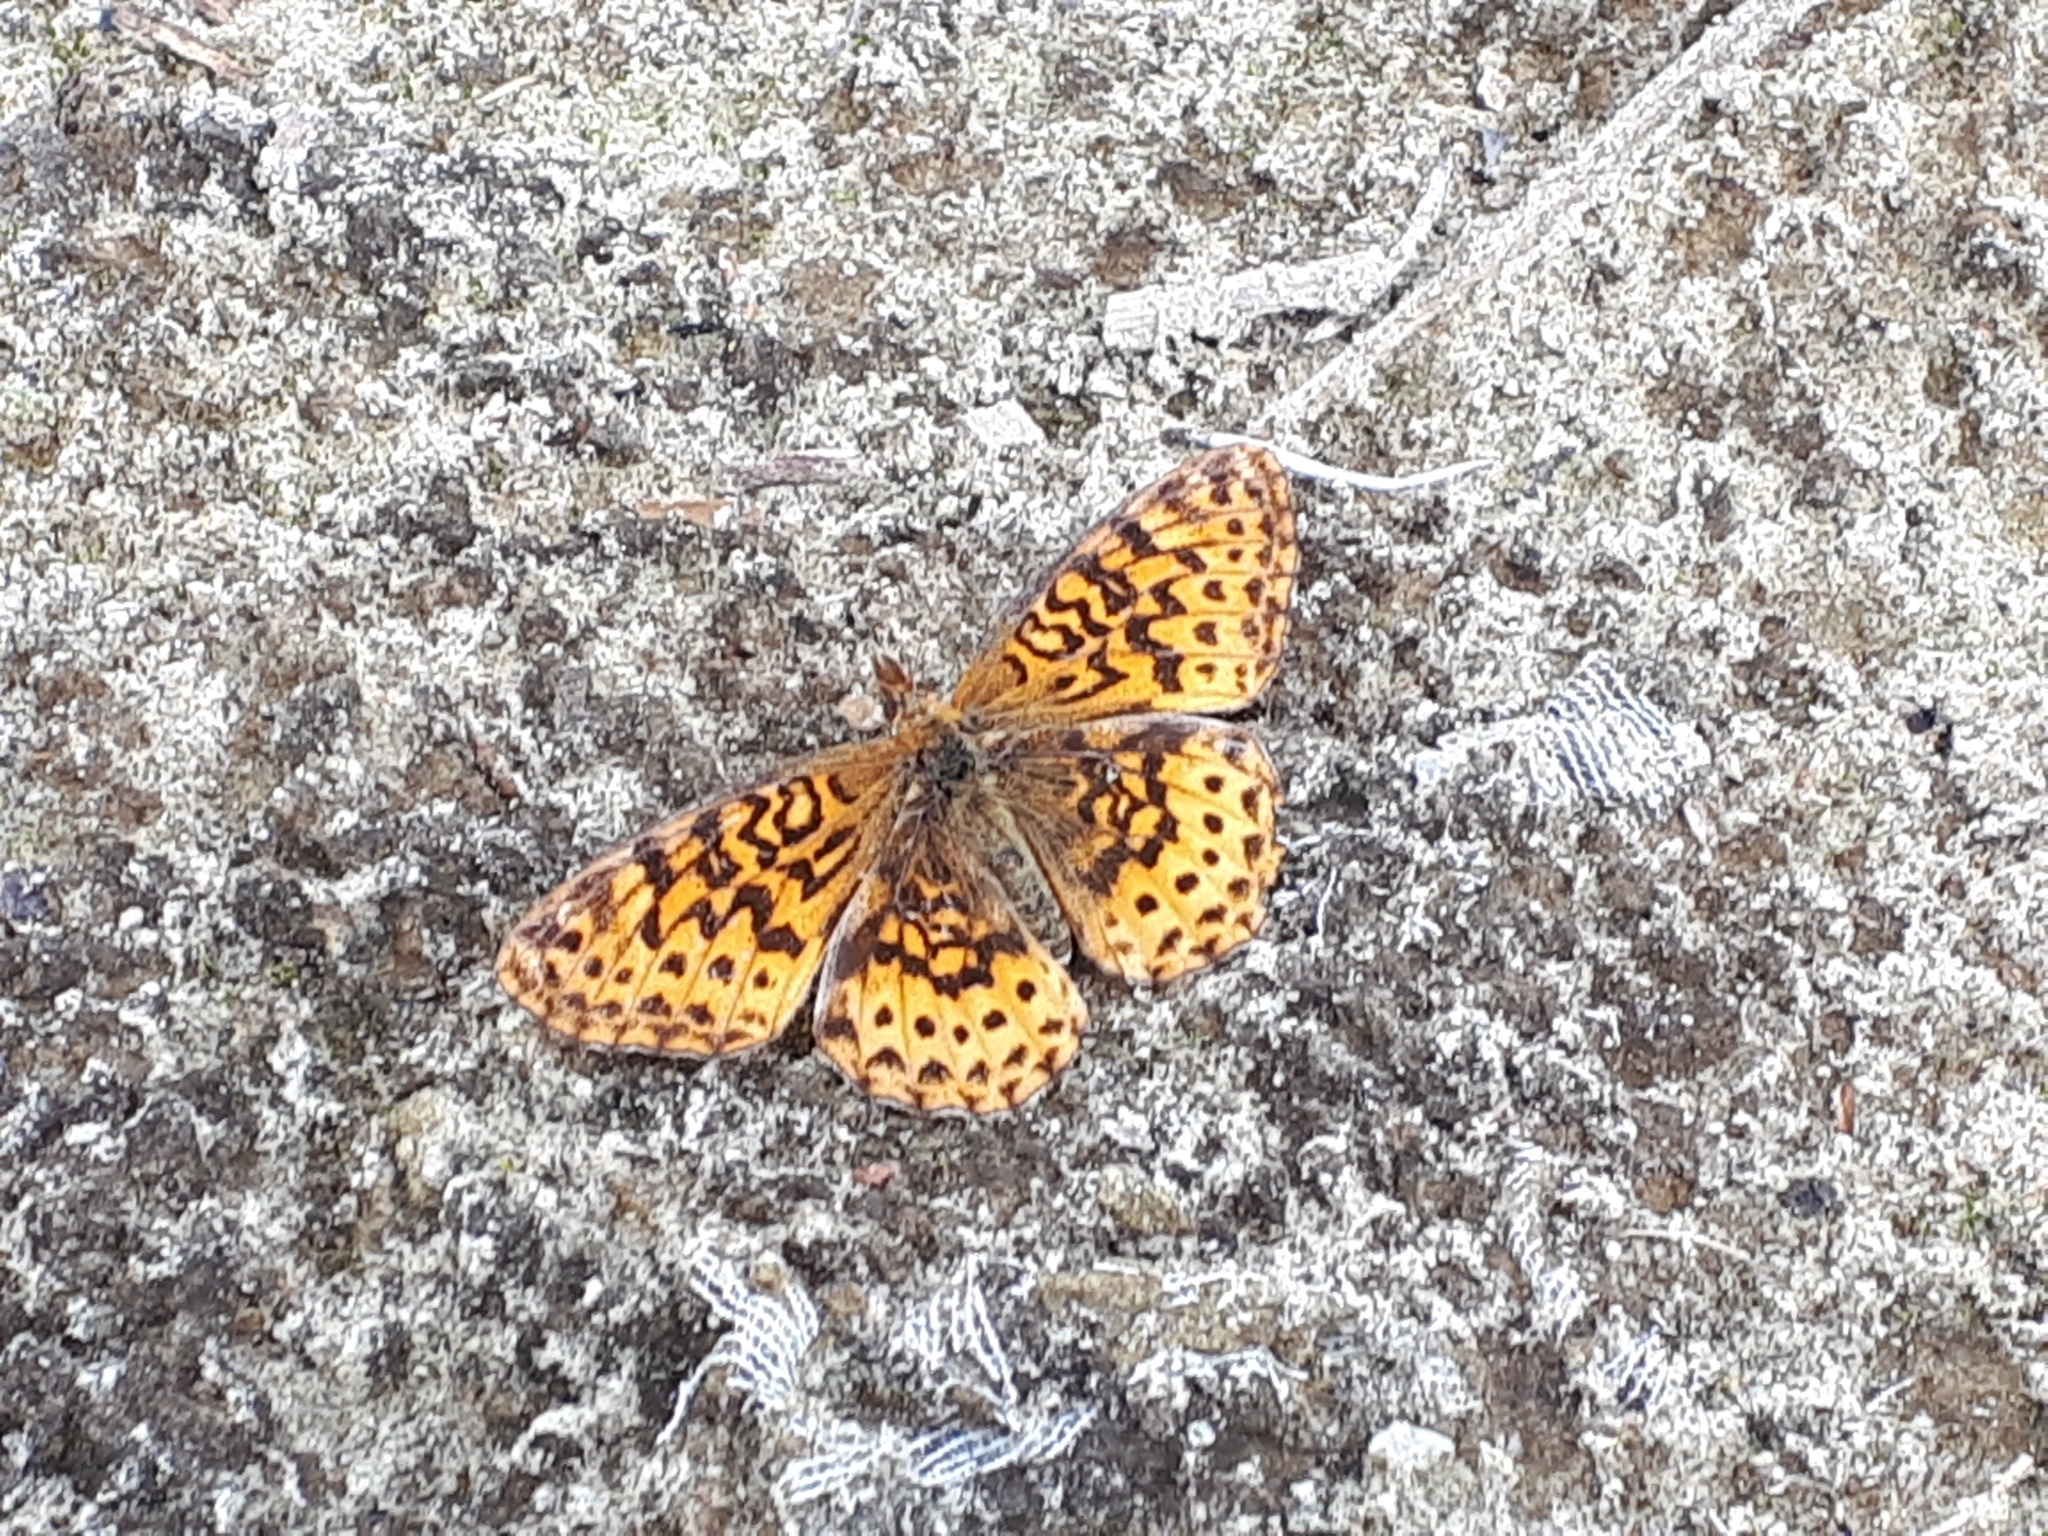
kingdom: Animalia
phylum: Arthropoda
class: Insecta
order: Lepidoptera
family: Nymphalidae
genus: Clossiana
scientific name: Clossiana toddi
